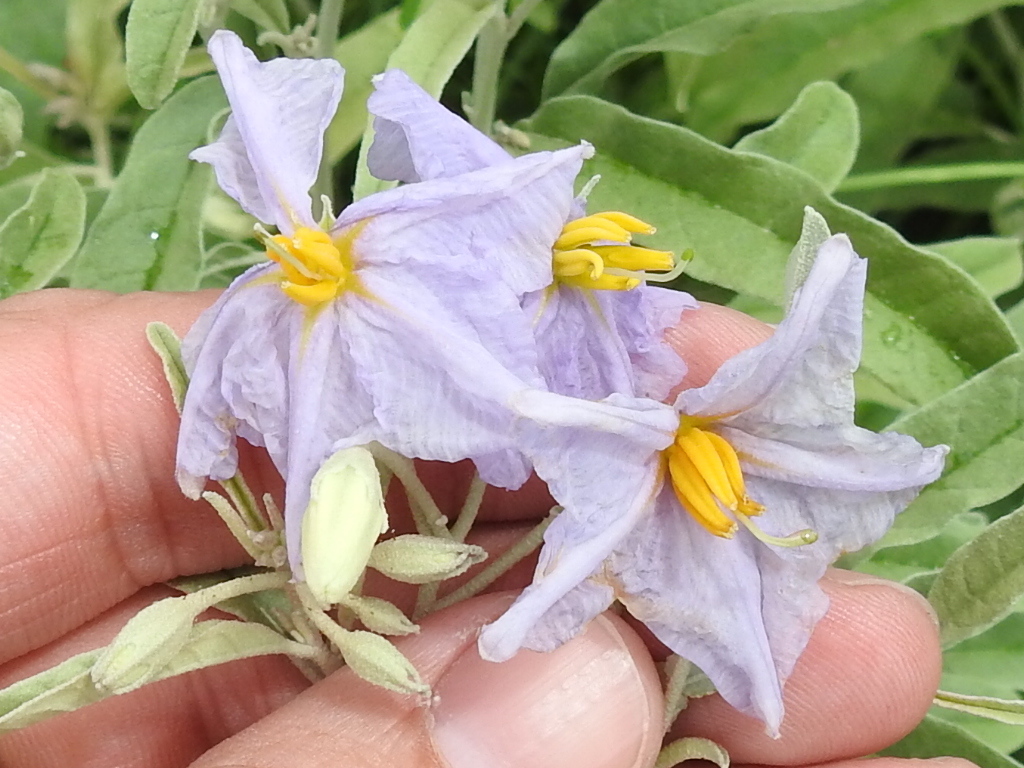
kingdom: Plantae
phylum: Tracheophyta
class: Magnoliopsida
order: Solanales
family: Solanaceae
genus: Solanum
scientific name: Solanum elaeagnifolium
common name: Silverleaf nightshade
